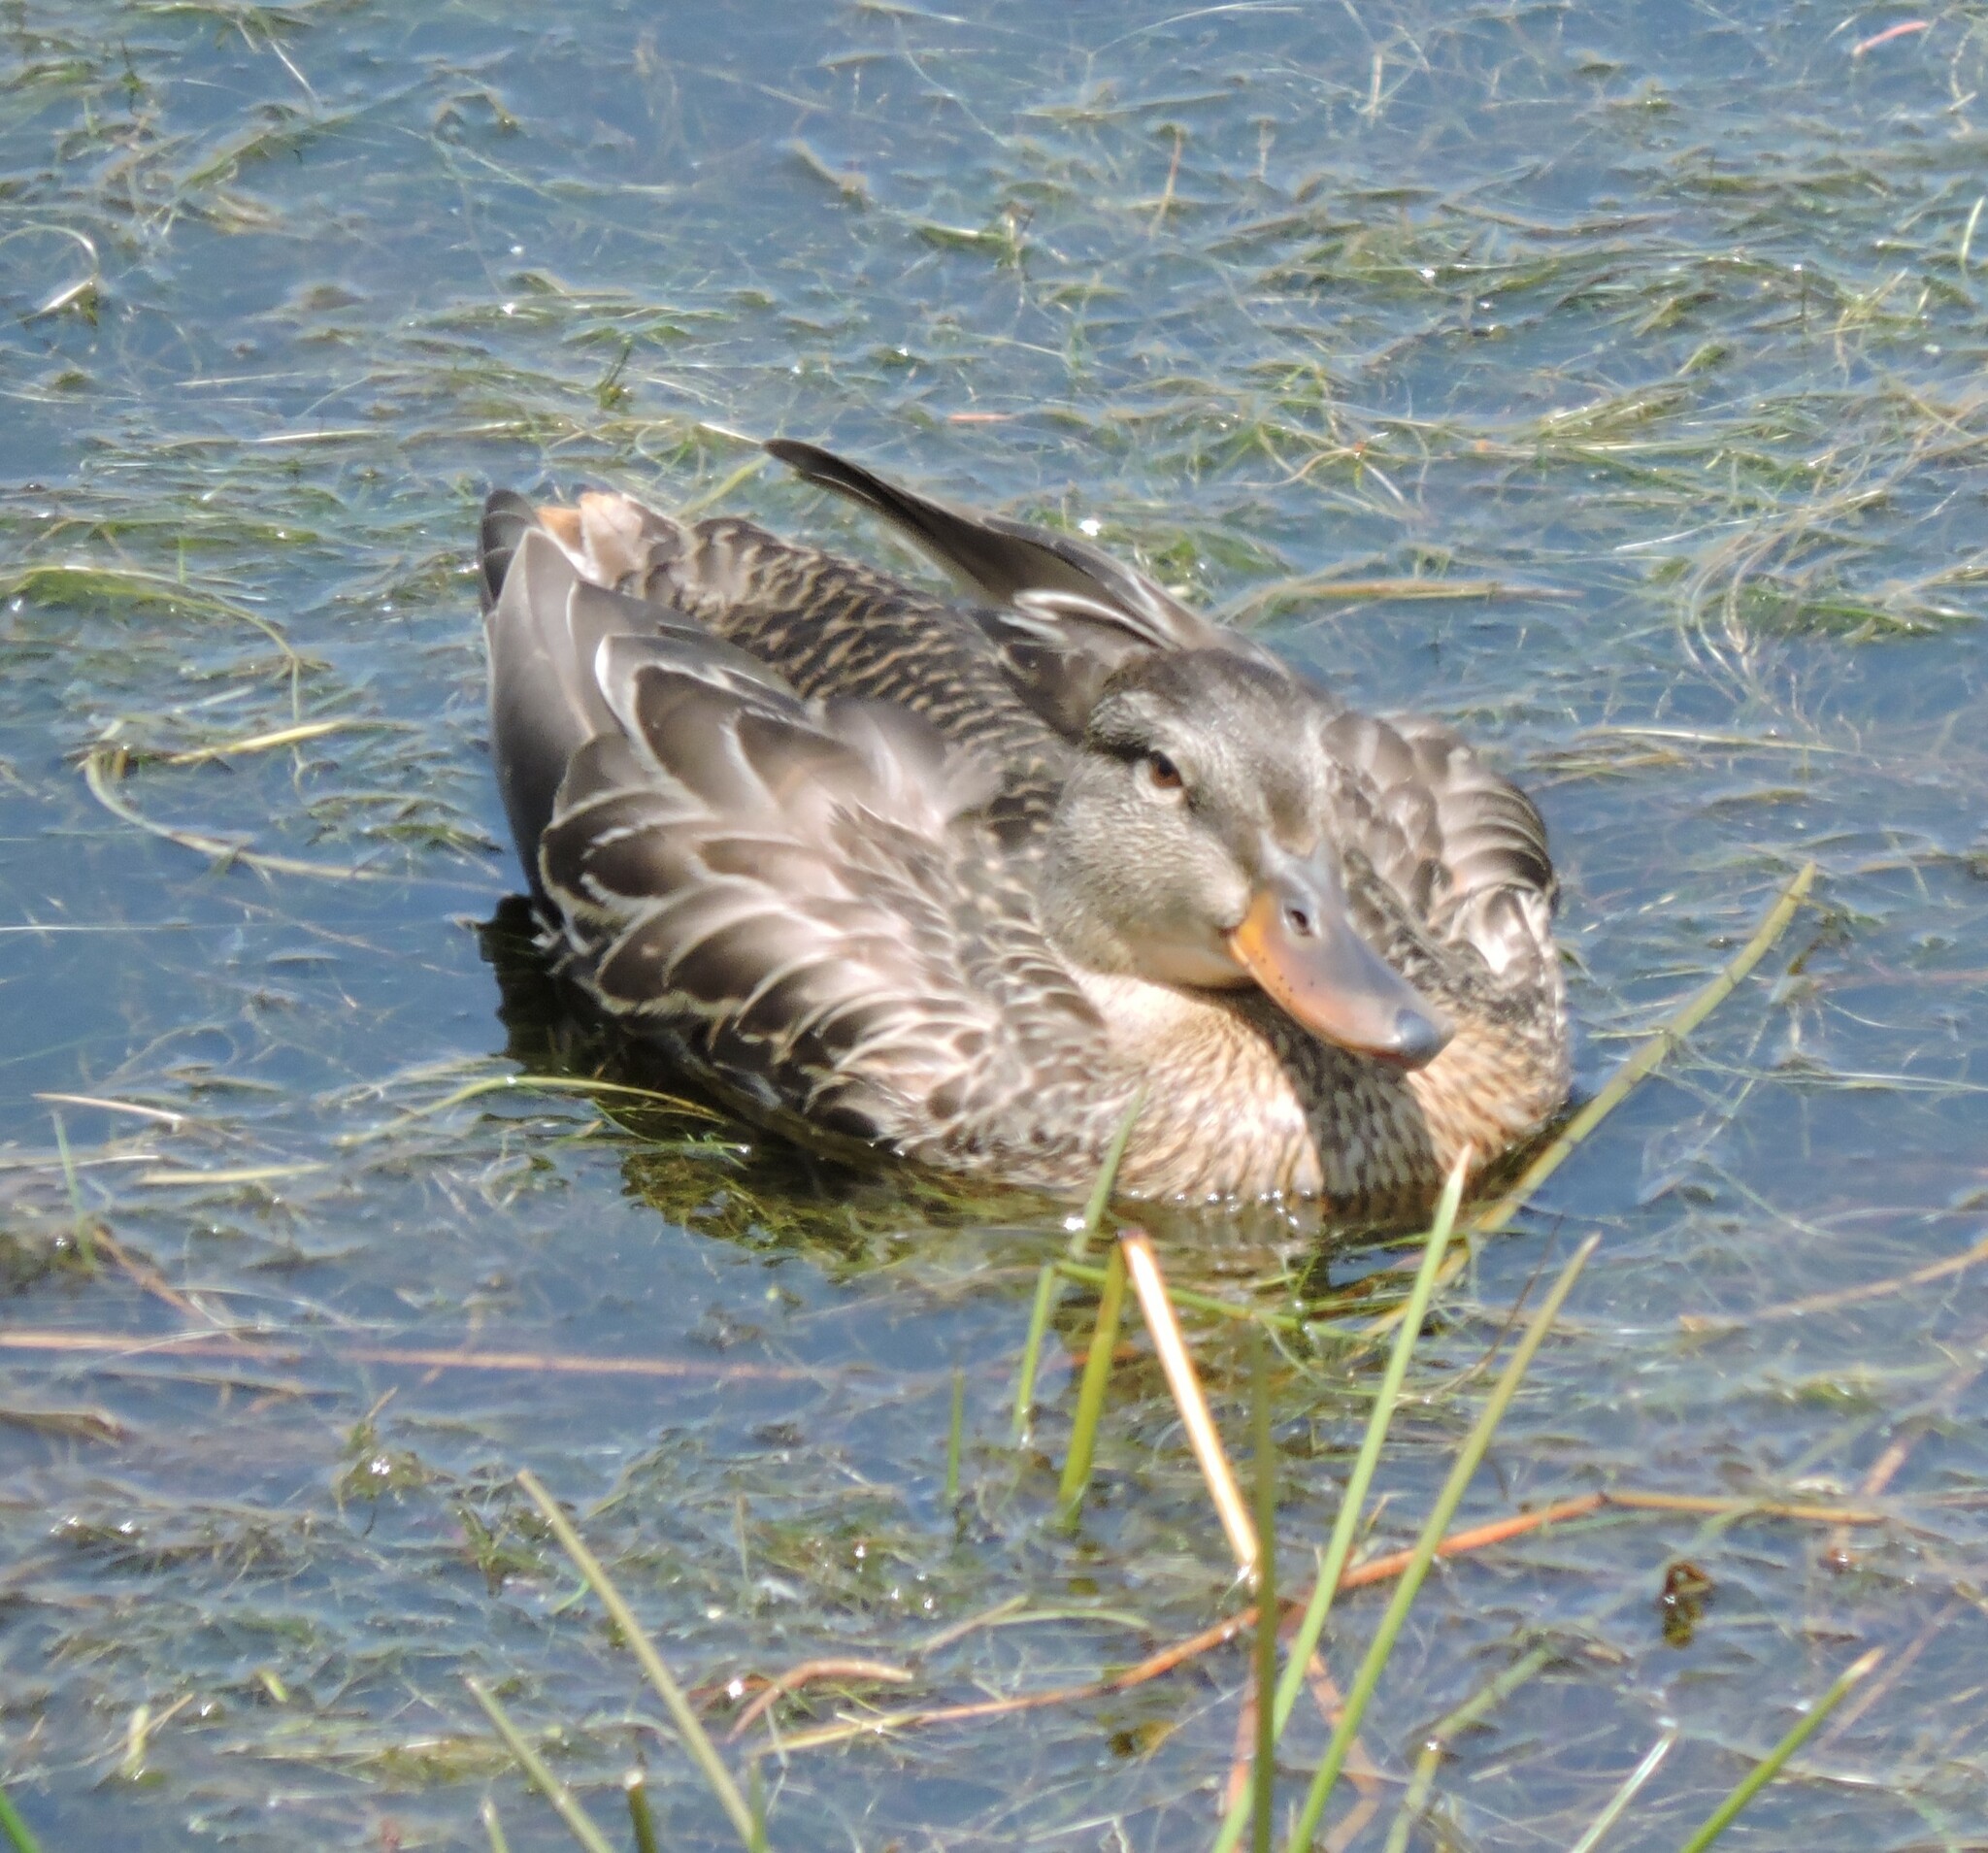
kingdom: Animalia
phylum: Chordata
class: Aves
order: Anseriformes
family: Anatidae
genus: Anas
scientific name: Anas platyrhynchos
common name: Mallard
